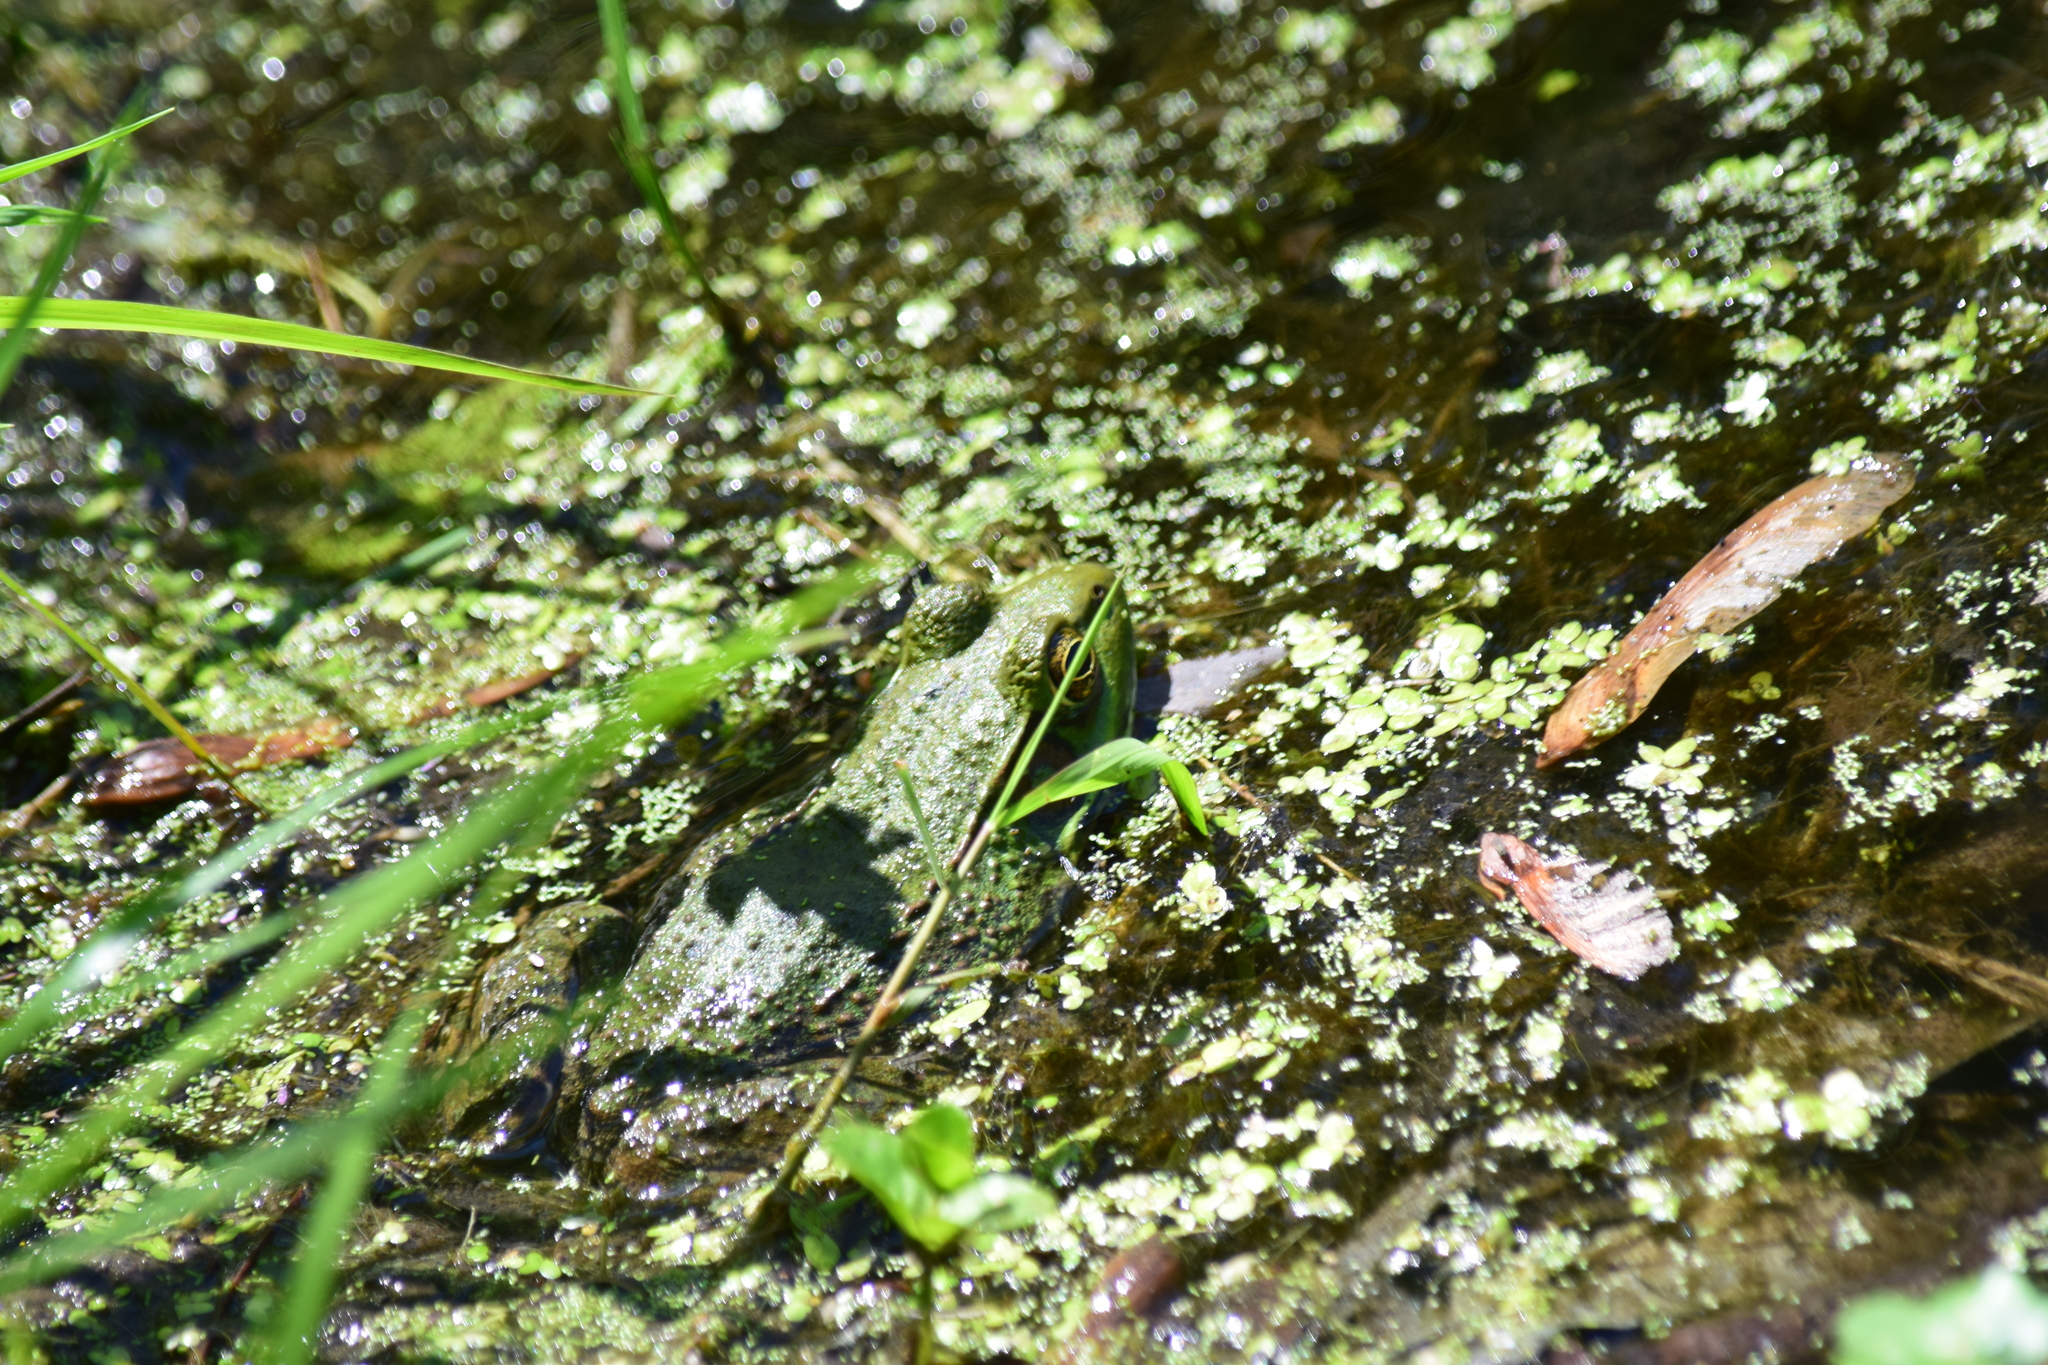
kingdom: Animalia
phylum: Chordata
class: Amphibia
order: Anura
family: Ranidae
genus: Lithobates
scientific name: Lithobates clamitans
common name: Green frog
